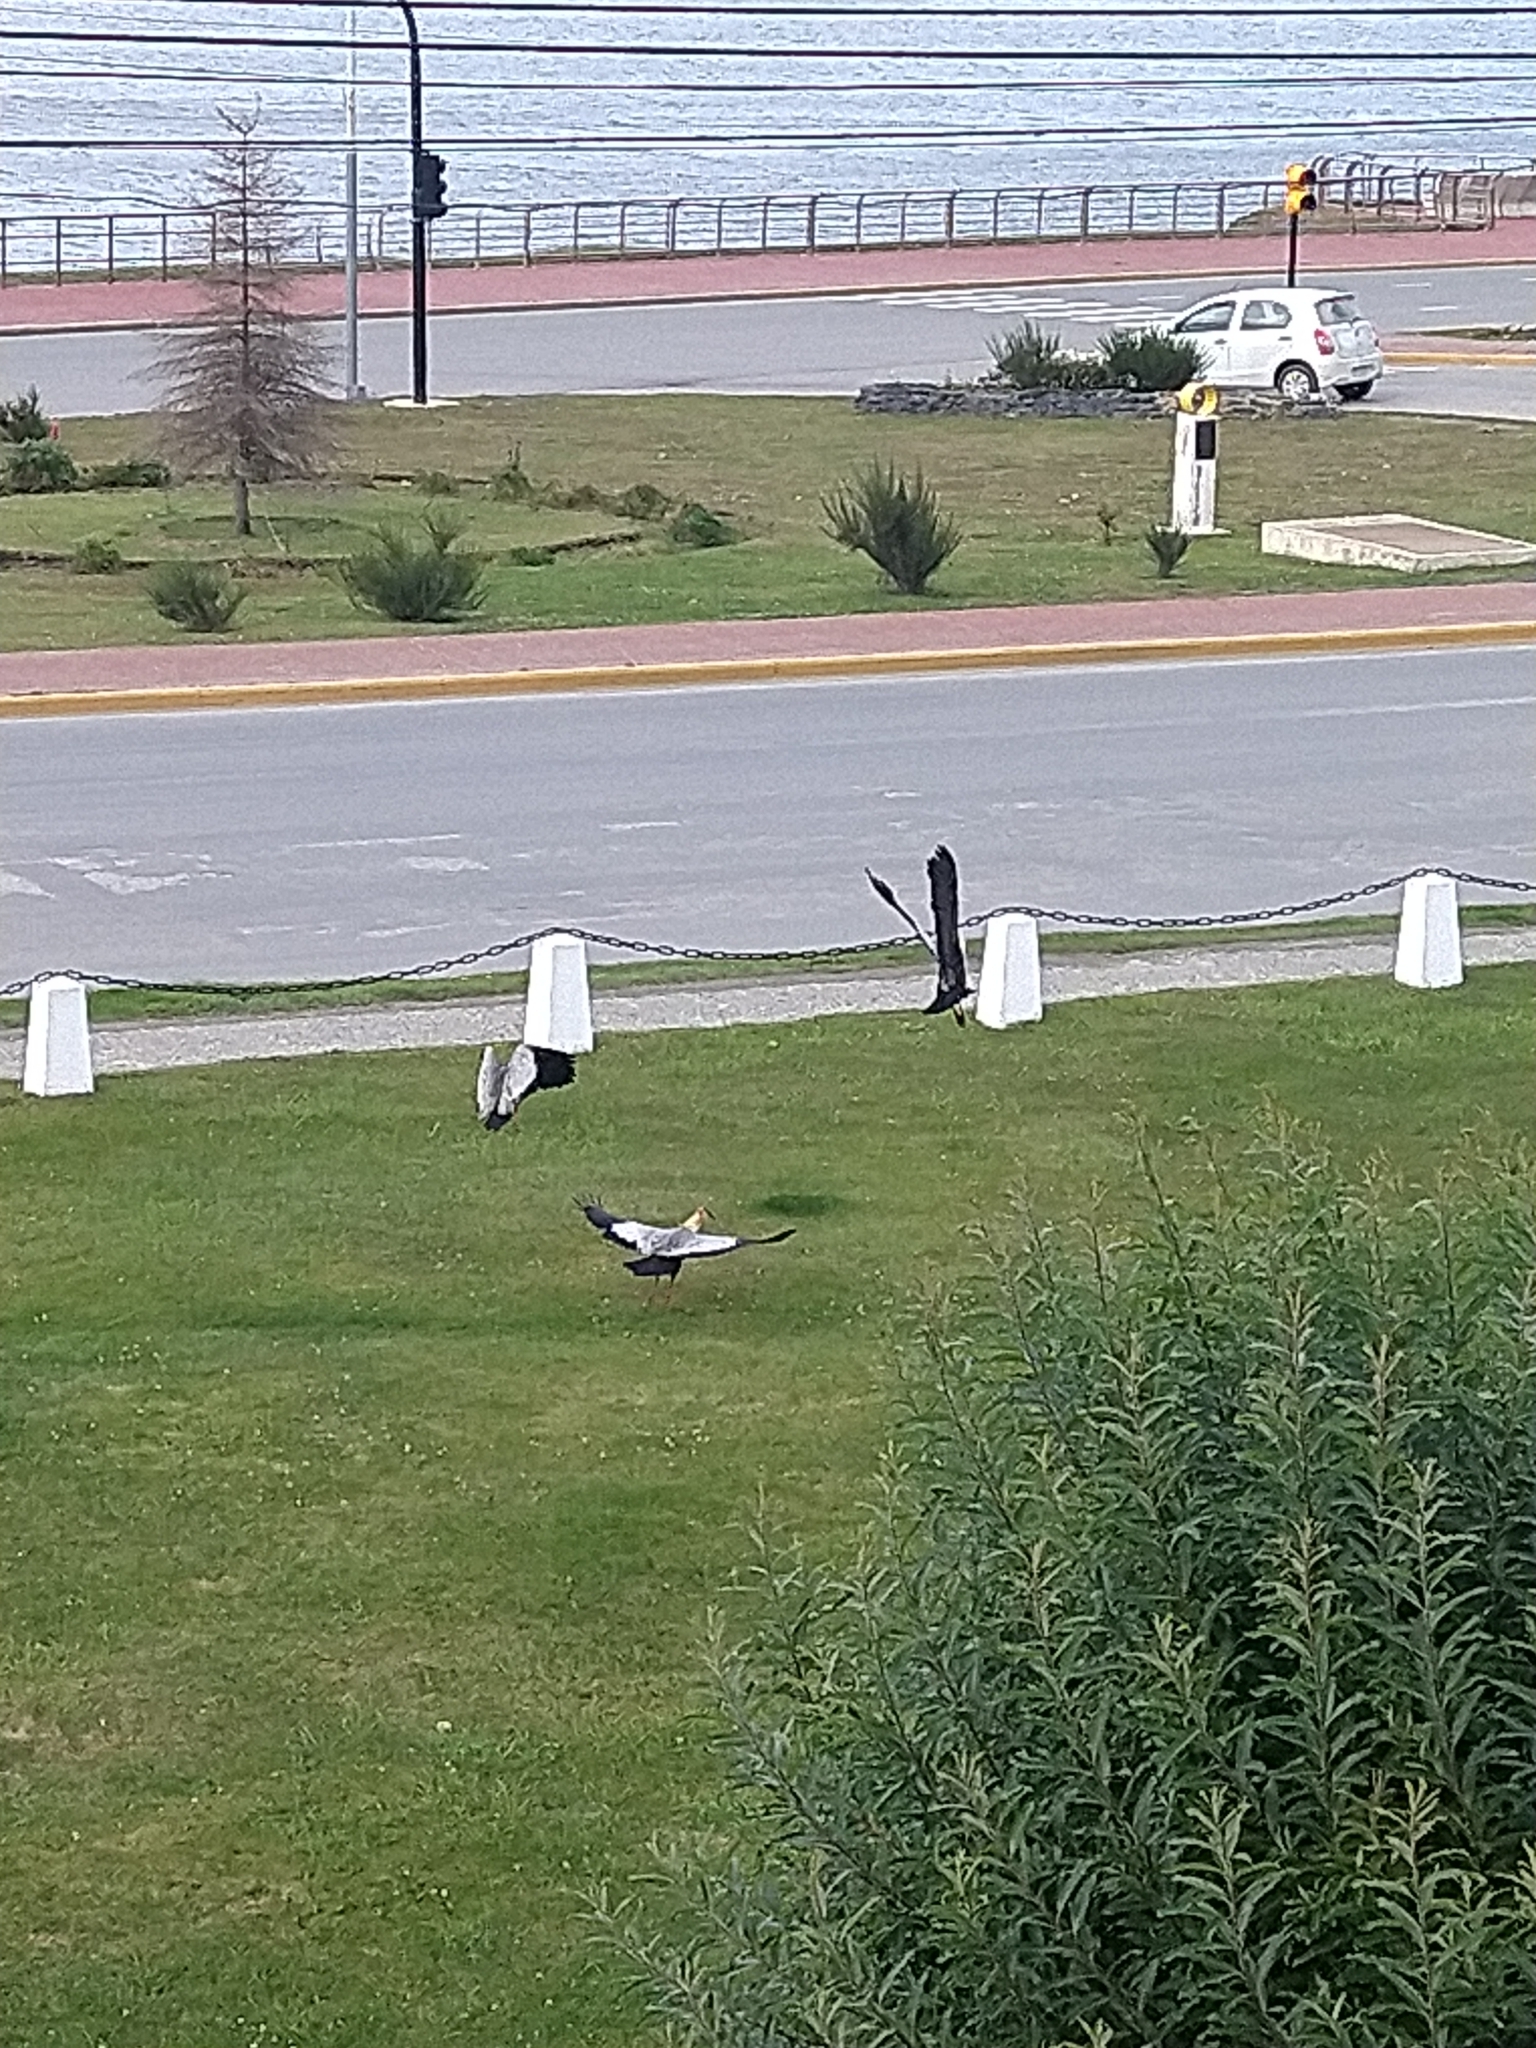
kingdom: Animalia
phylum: Chordata
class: Aves
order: Pelecaniformes
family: Threskiornithidae
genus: Theristicus
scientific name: Theristicus melanopis
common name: Black-faced ibis
